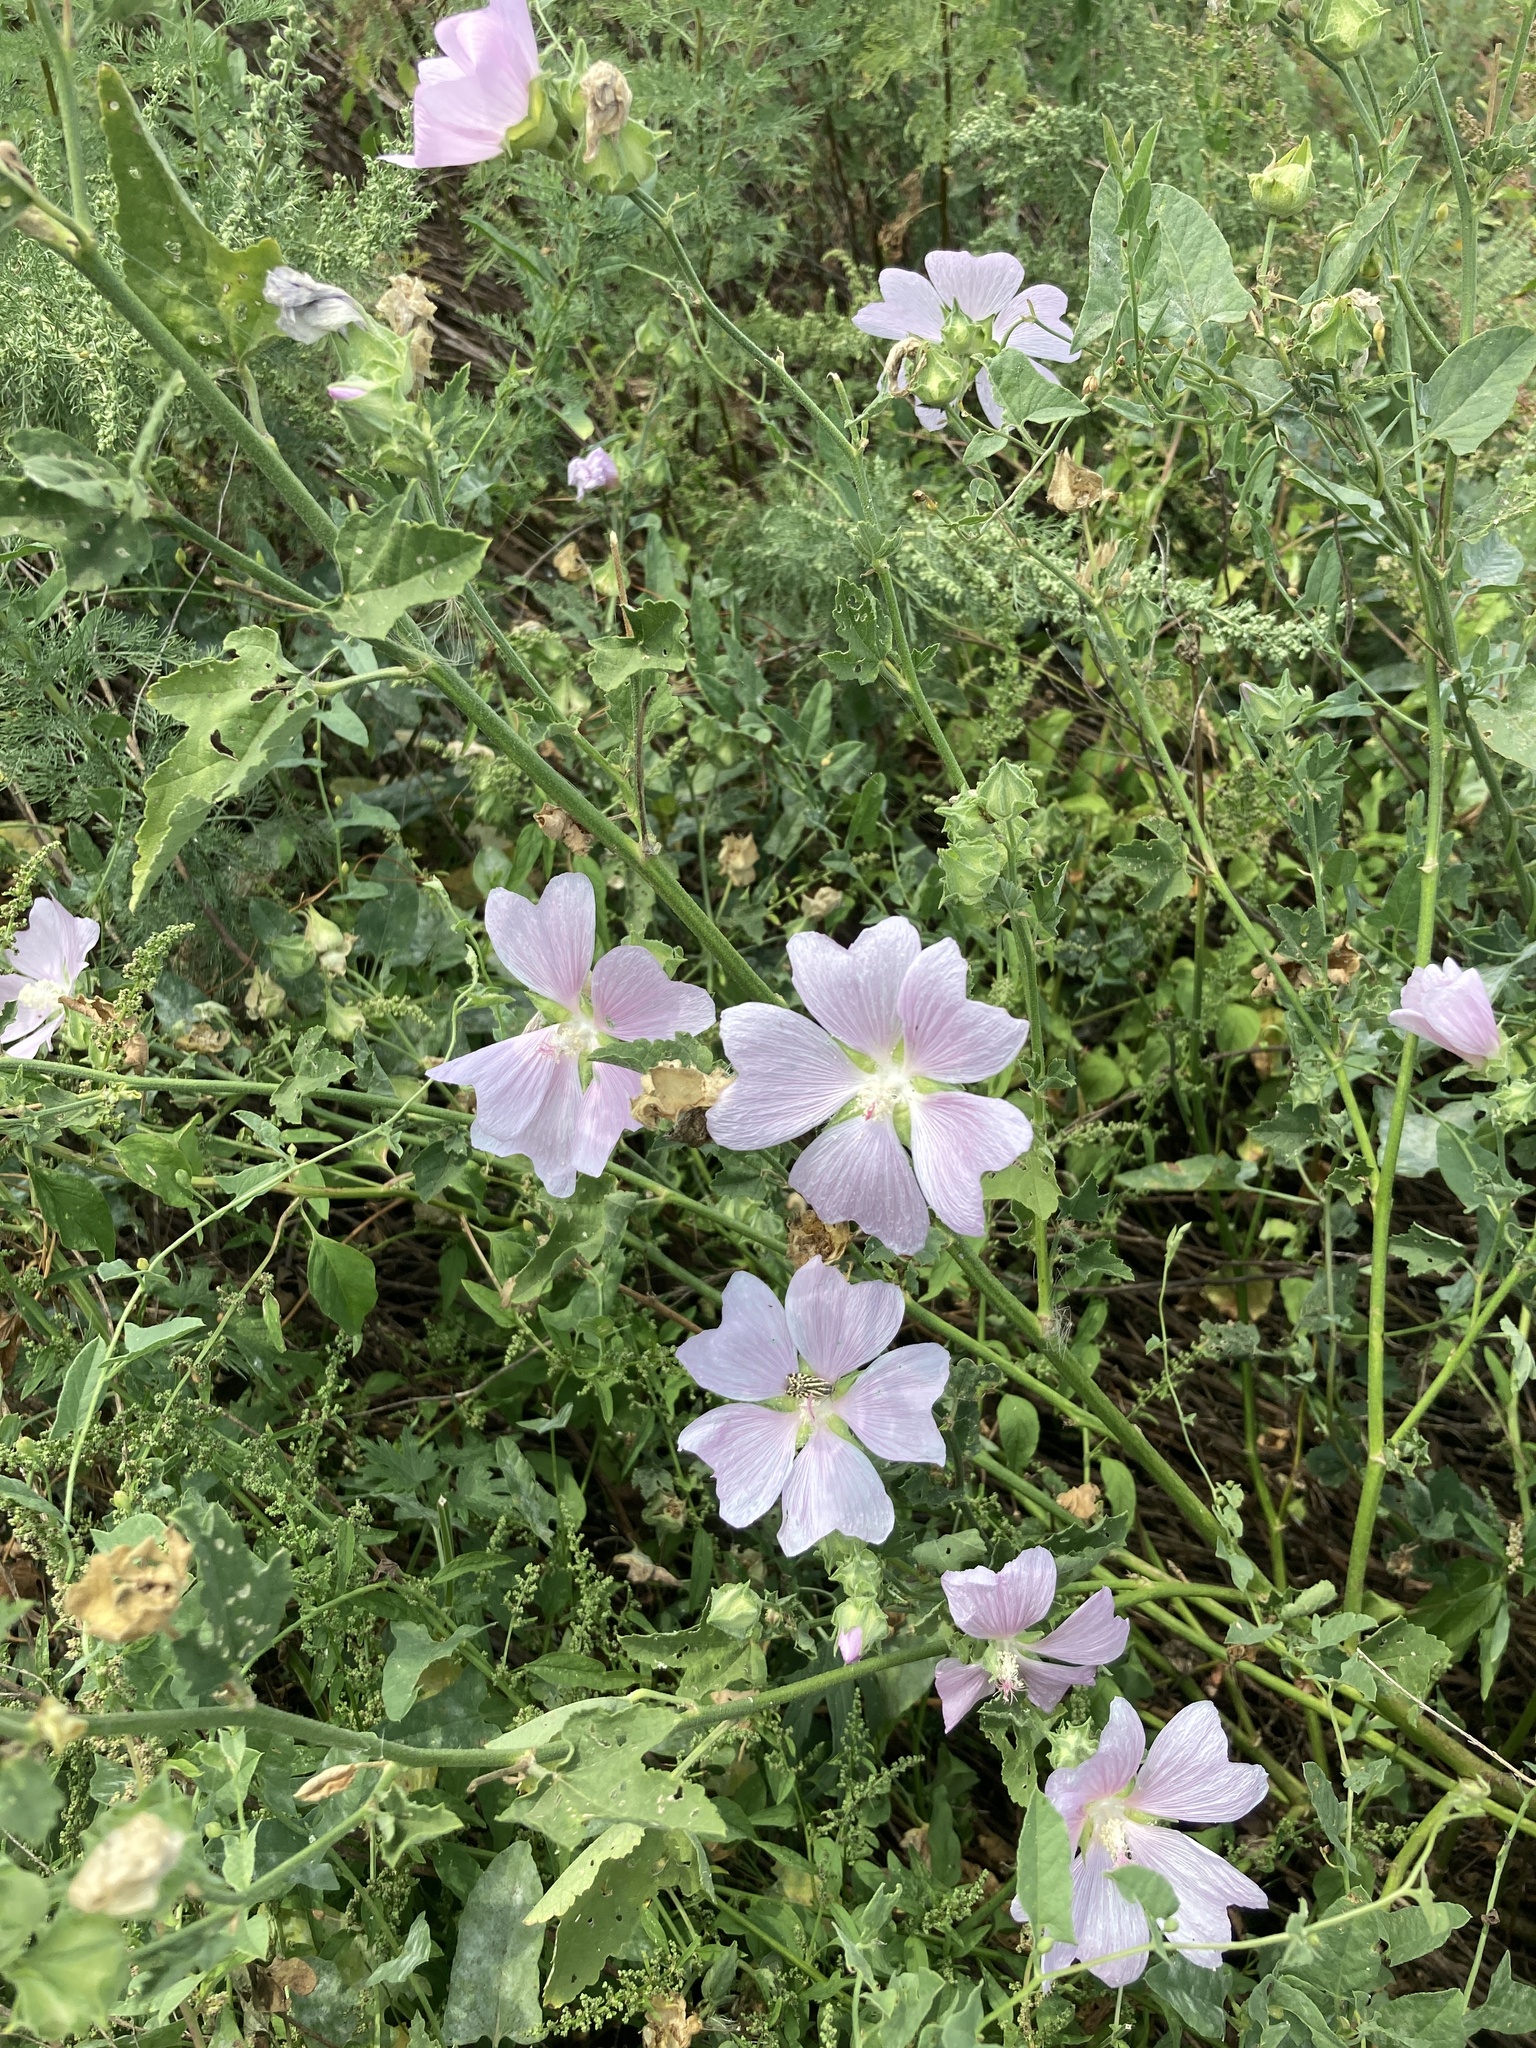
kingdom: Plantae
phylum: Tracheophyta
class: Magnoliopsida
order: Malvales
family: Malvaceae
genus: Malva
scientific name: Malva thuringiaca
